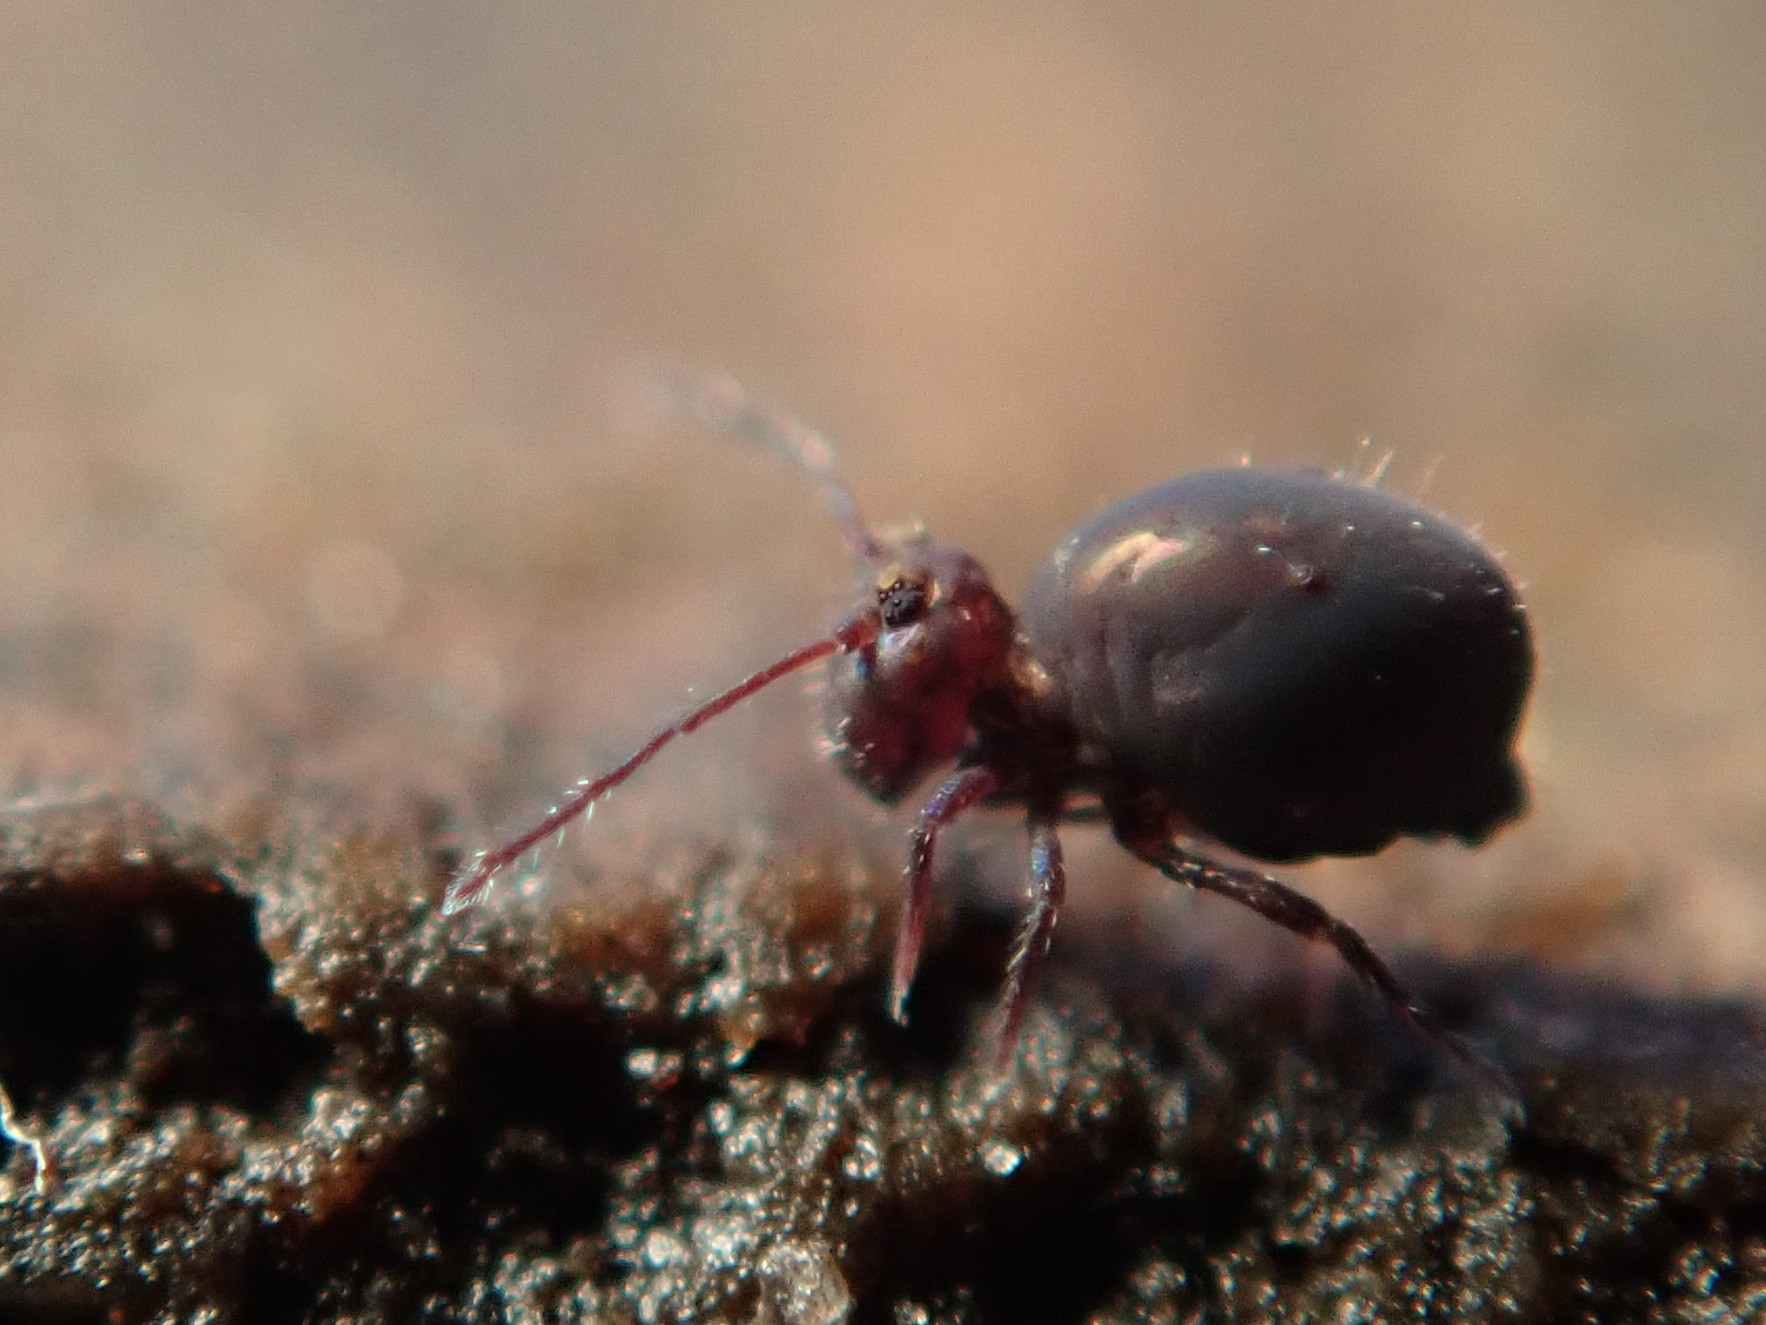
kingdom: Animalia
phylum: Arthropoda
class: Collembola
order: Symphypleona
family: Dicyrtomidae
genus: Dicyrtoma
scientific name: Dicyrtoma fusca
